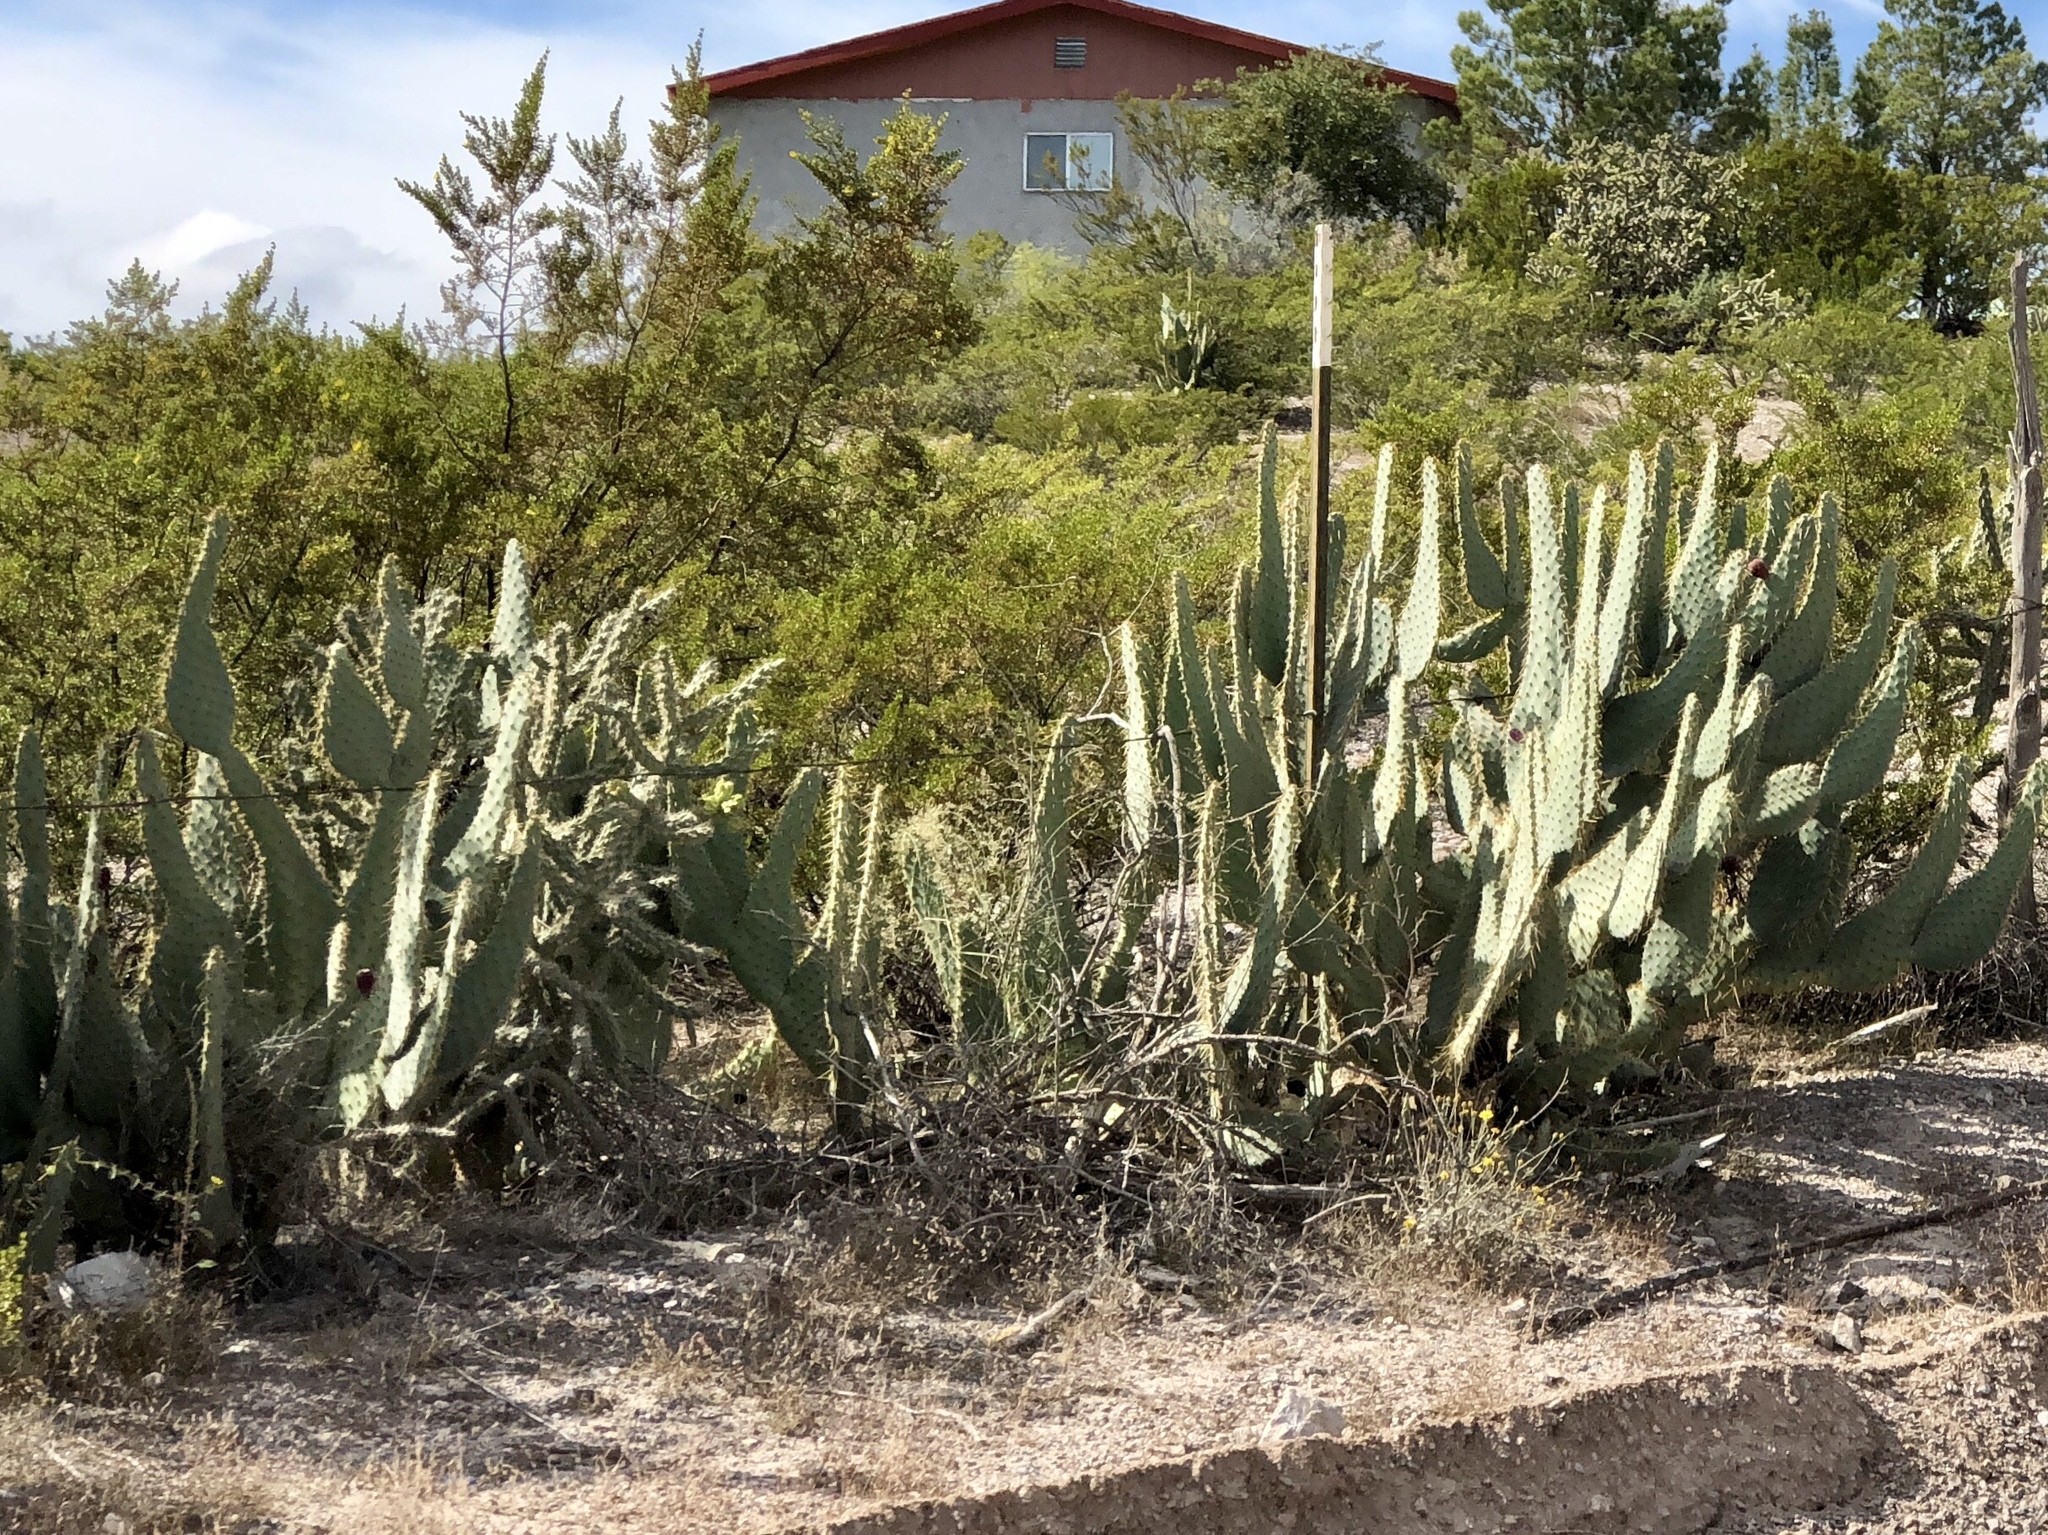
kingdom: Plantae
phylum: Tracheophyta
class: Magnoliopsida
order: Caryophyllales
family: Cactaceae
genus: Opuntia
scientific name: Opuntia engelmannii
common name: Cactus-apple
